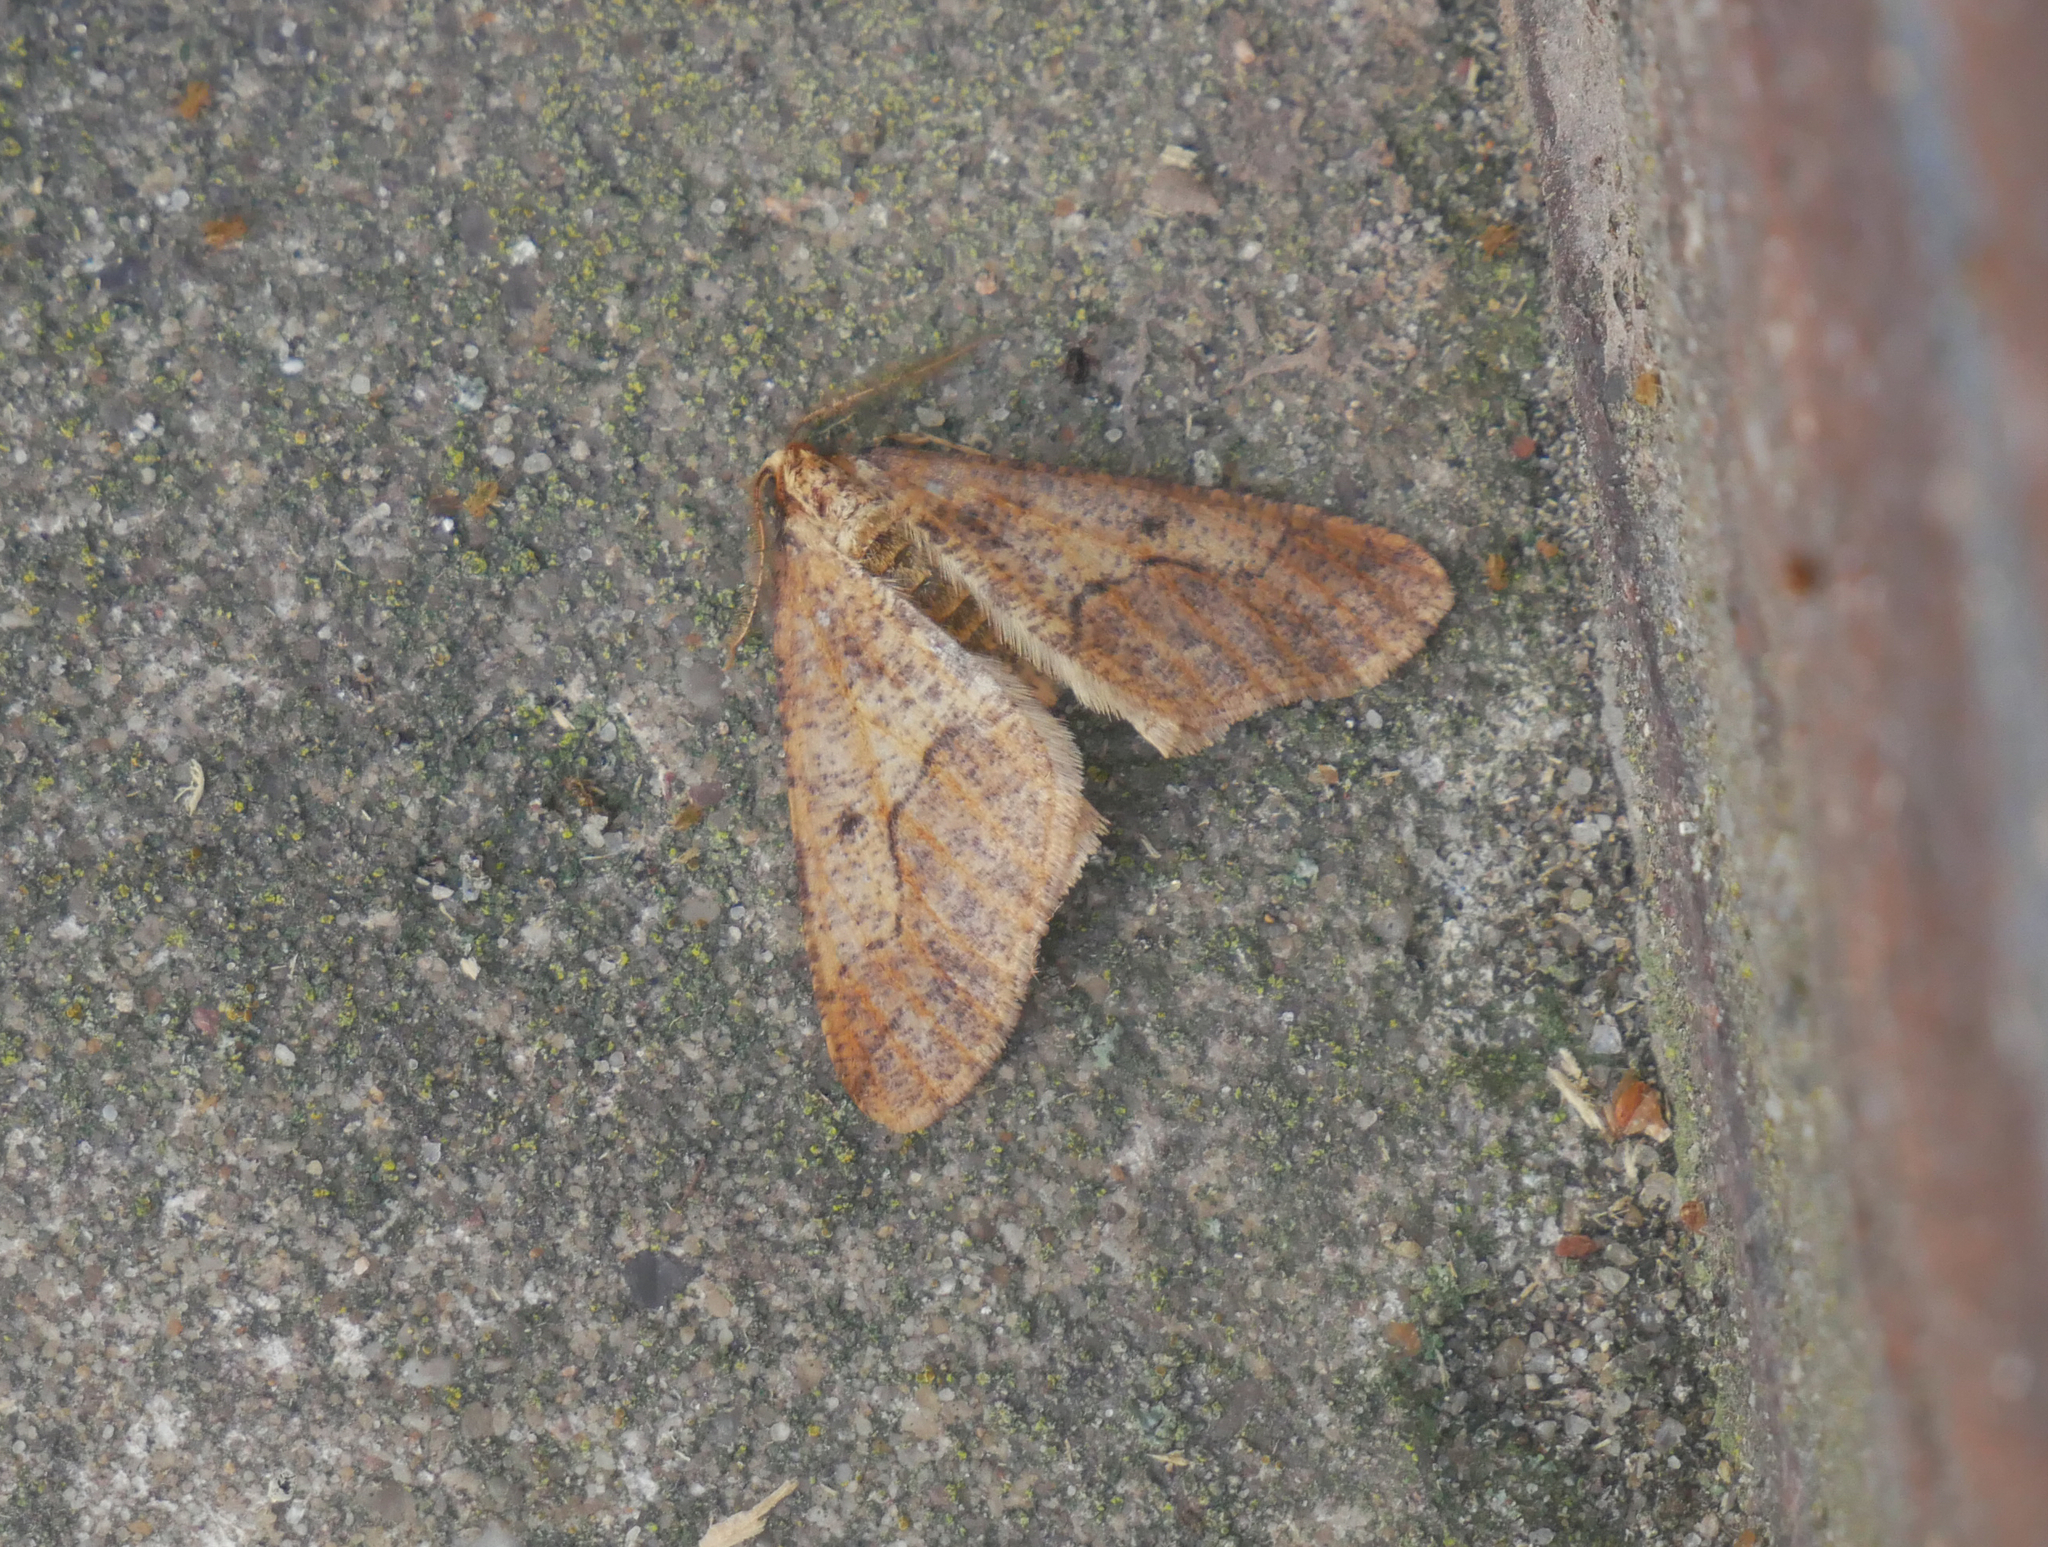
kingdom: Animalia
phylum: Arthropoda
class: Insecta
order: Lepidoptera
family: Geometridae
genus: Erannis
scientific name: Erannis defoliaria
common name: Mottled umber
